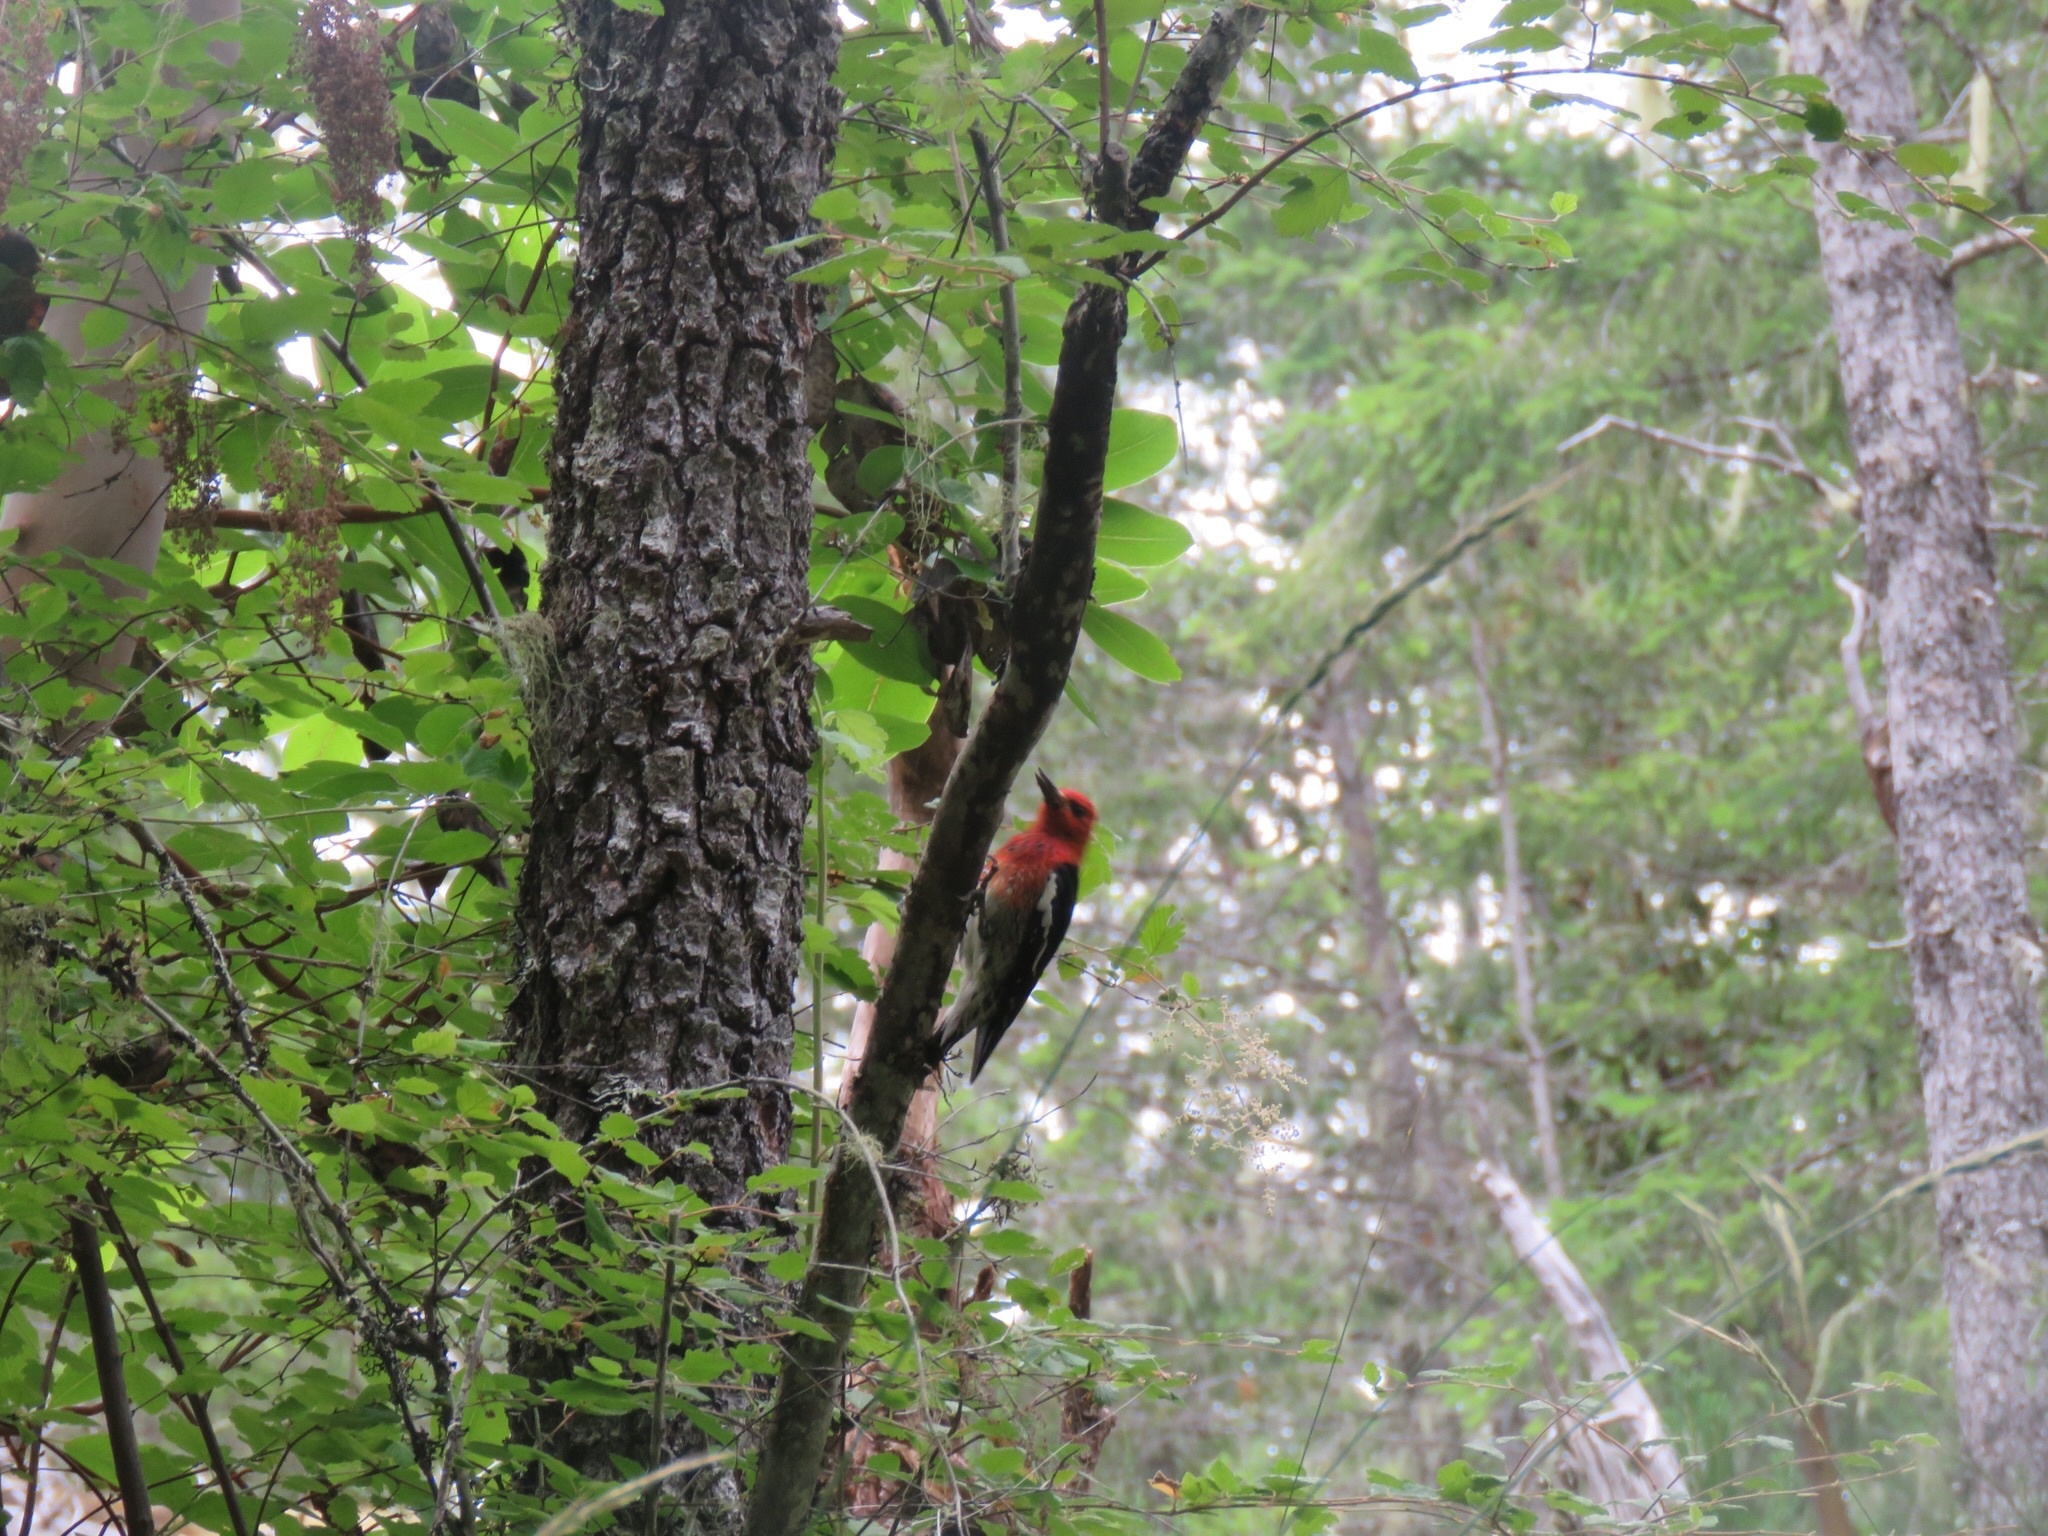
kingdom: Animalia
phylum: Chordata
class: Aves
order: Piciformes
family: Picidae
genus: Sphyrapicus
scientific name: Sphyrapicus ruber
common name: Red-breasted sapsucker
